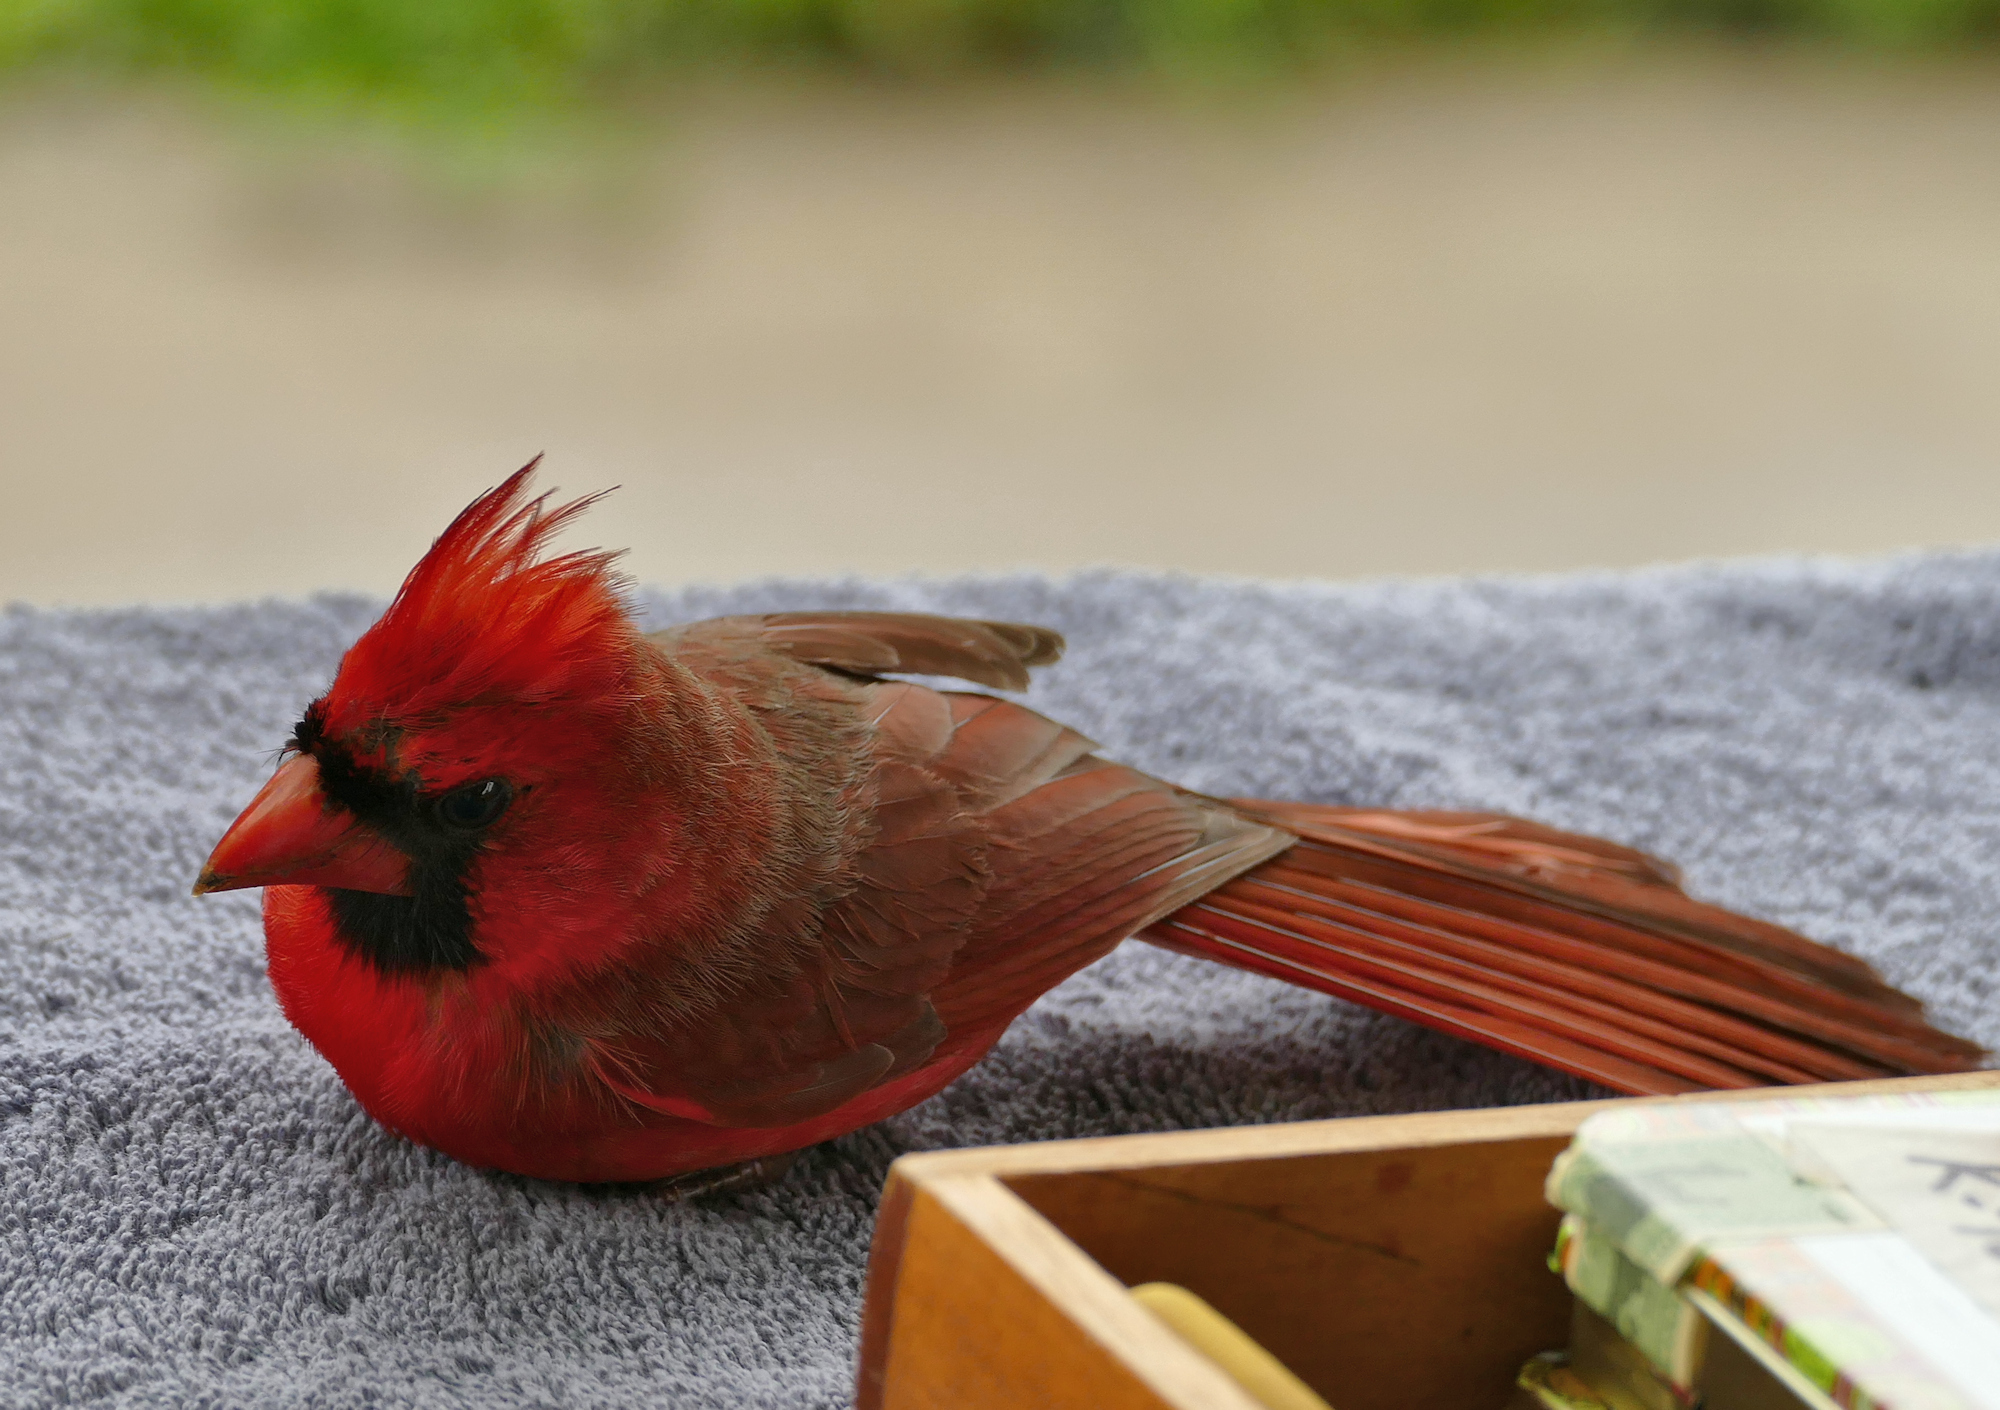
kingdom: Animalia
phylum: Chordata
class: Aves
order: Passeriformes
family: Cardinalidae
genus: Cardinalis
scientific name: Cardinalis cardinalis
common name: Northern cardinal
